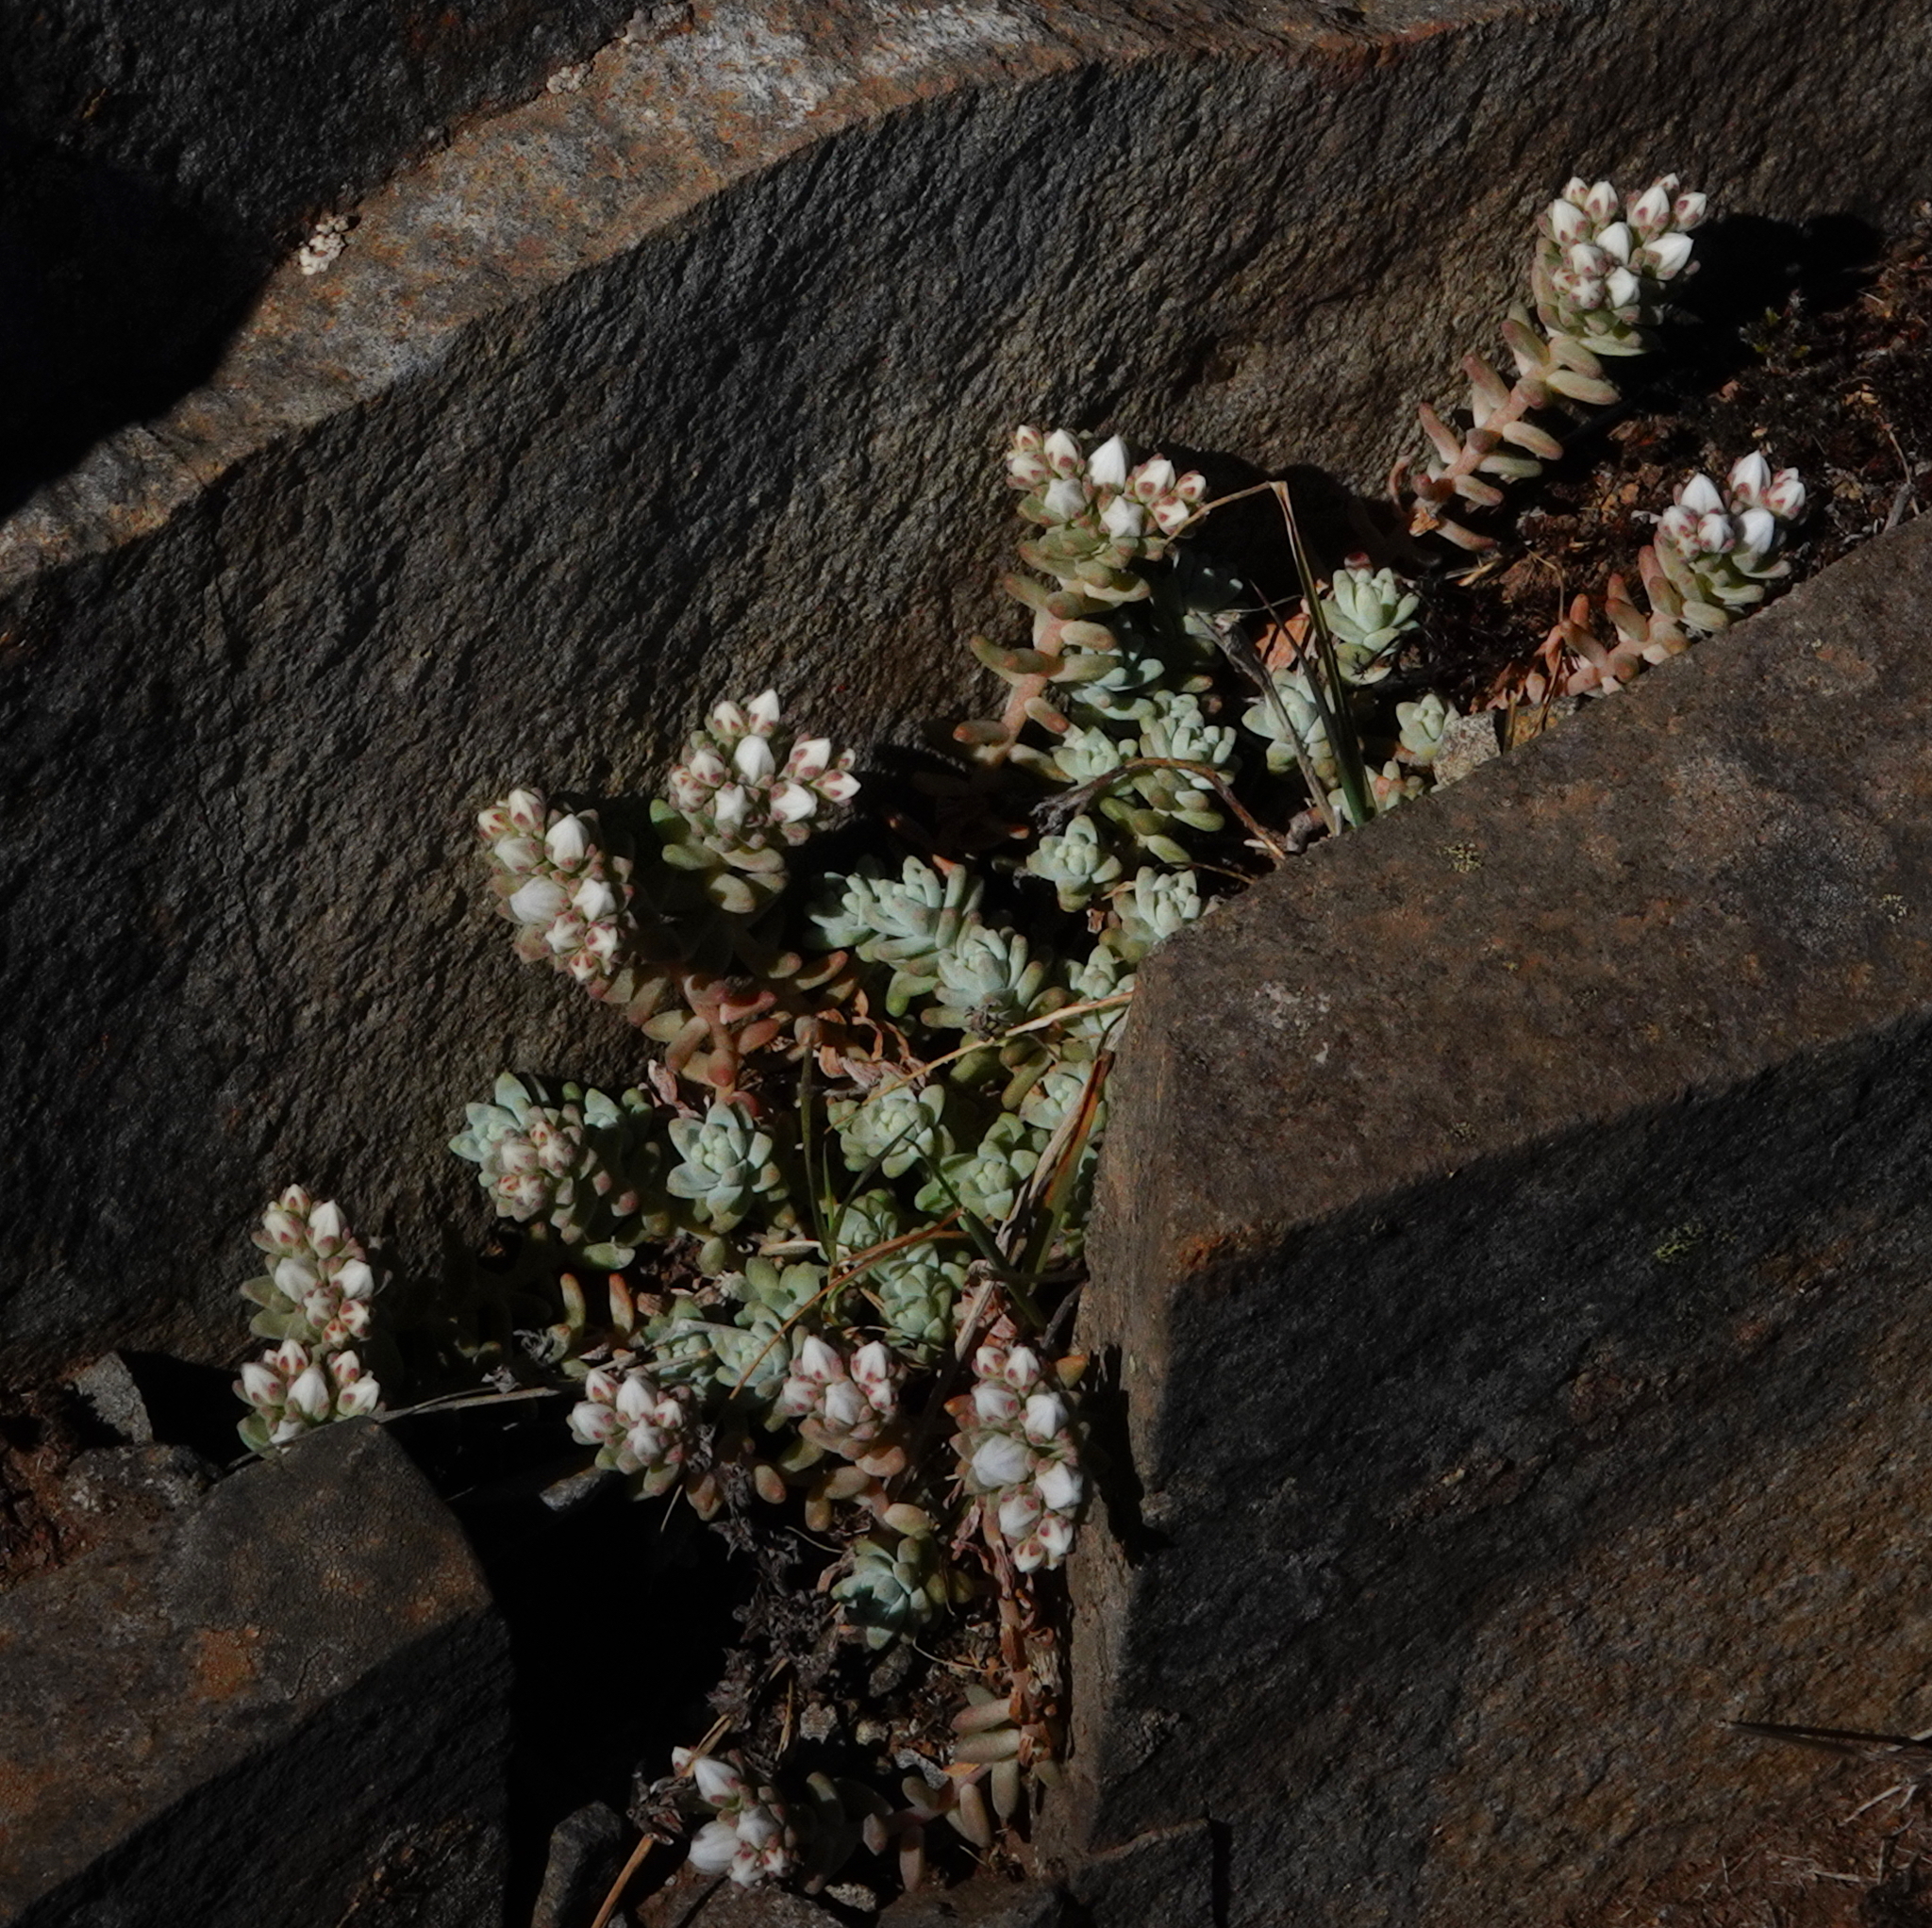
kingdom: Plantae
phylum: Tracheophyta
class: Magnoliopsida
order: Saxifragales
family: Crassulaceae
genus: Sedum
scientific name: Sedum farinosum
